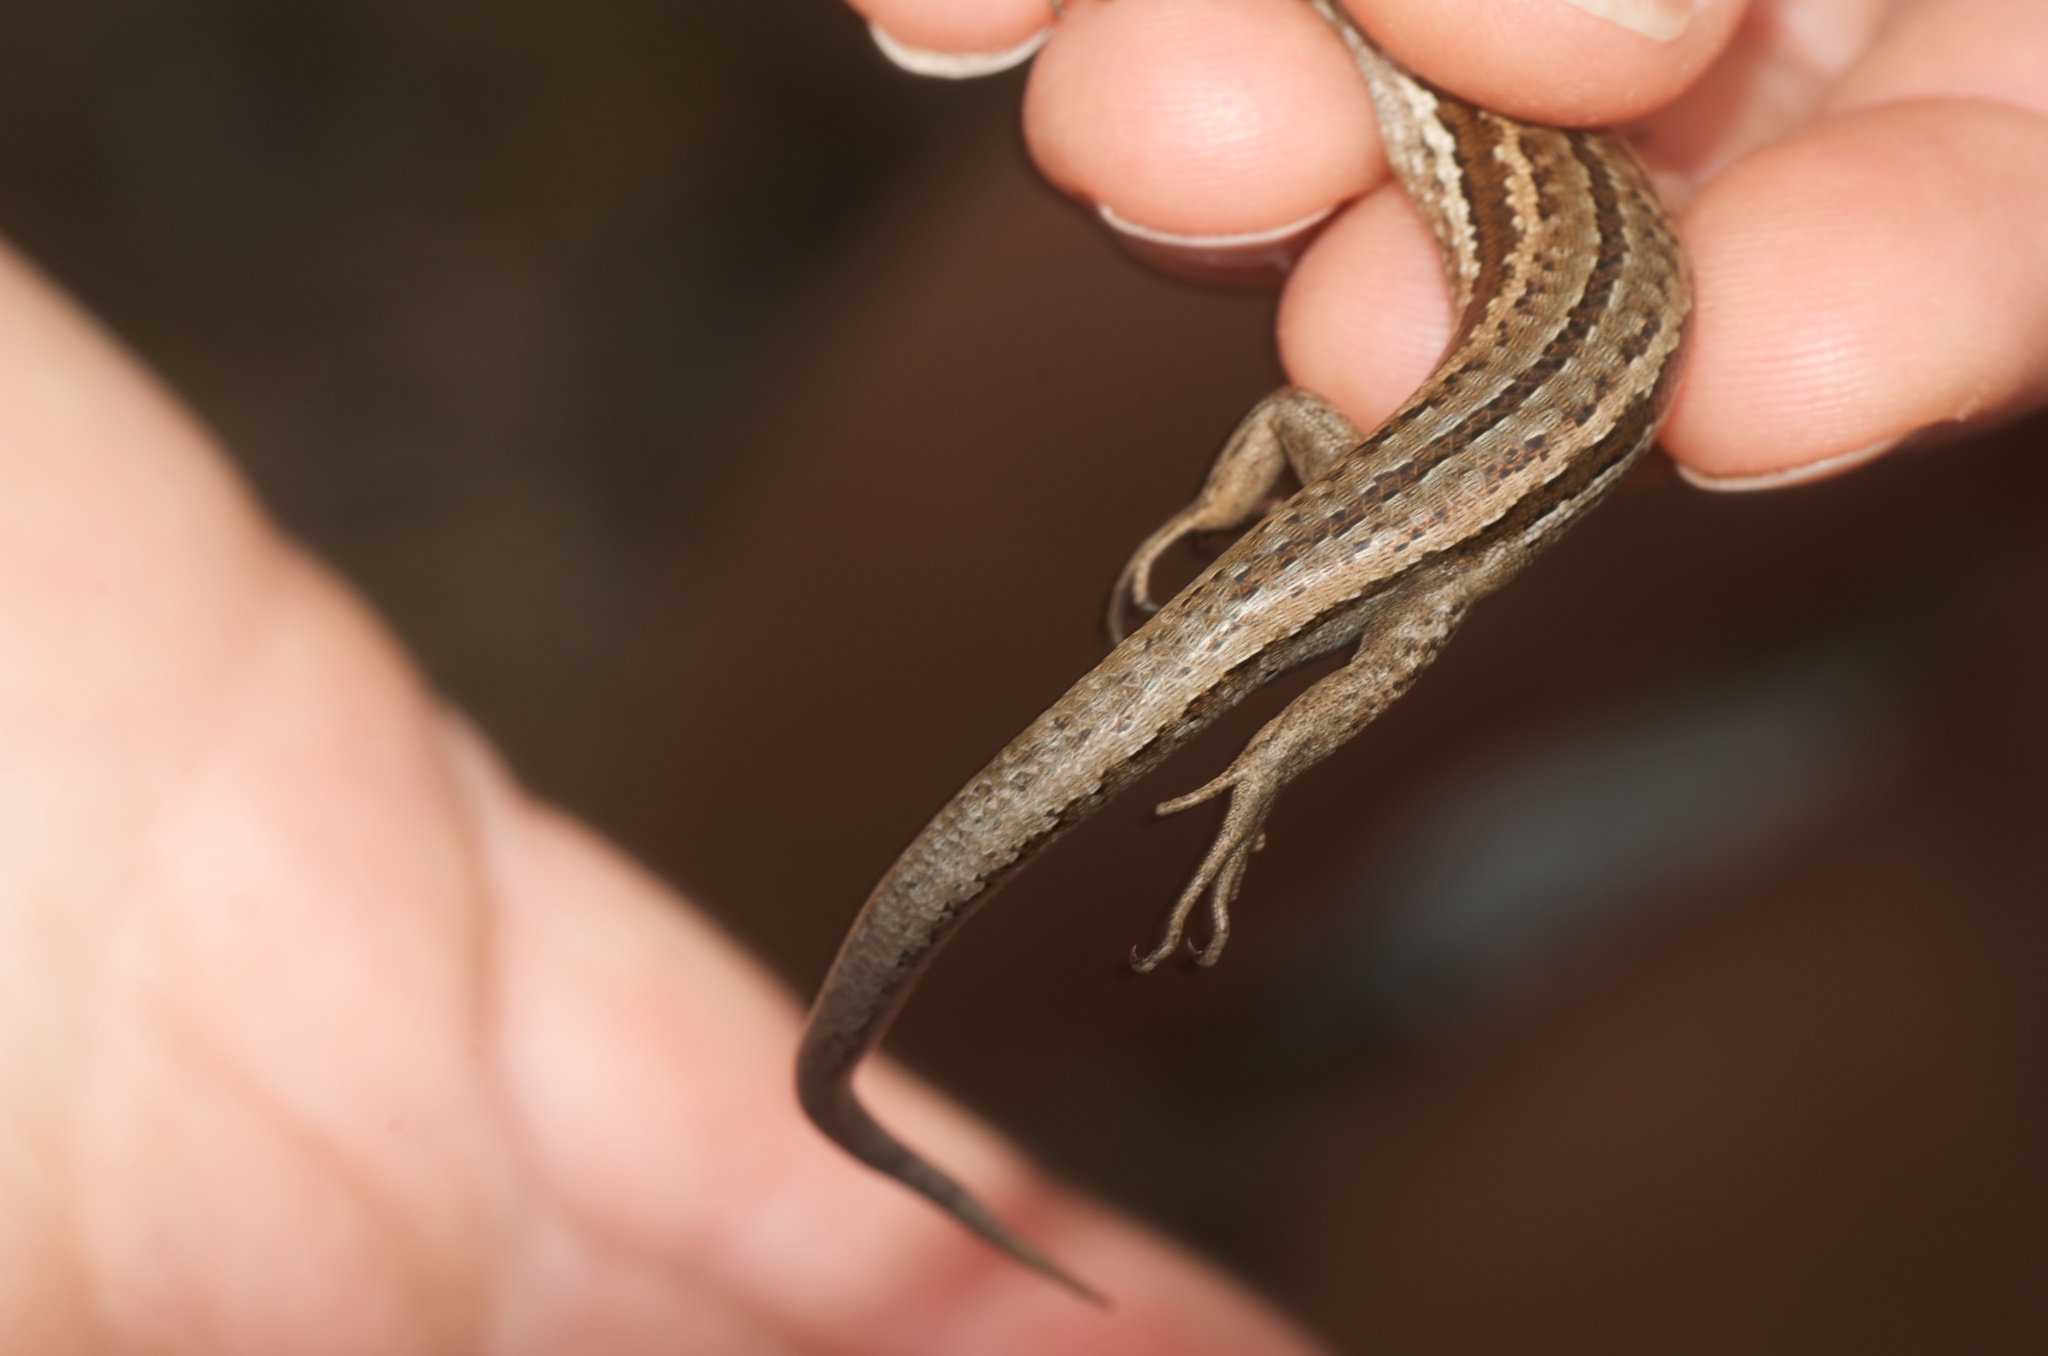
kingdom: Animalia
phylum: Chordata
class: Squamata
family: Scincidae
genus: Oligosoma
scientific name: Oligosoma maccanni
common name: Mccann’s skink
